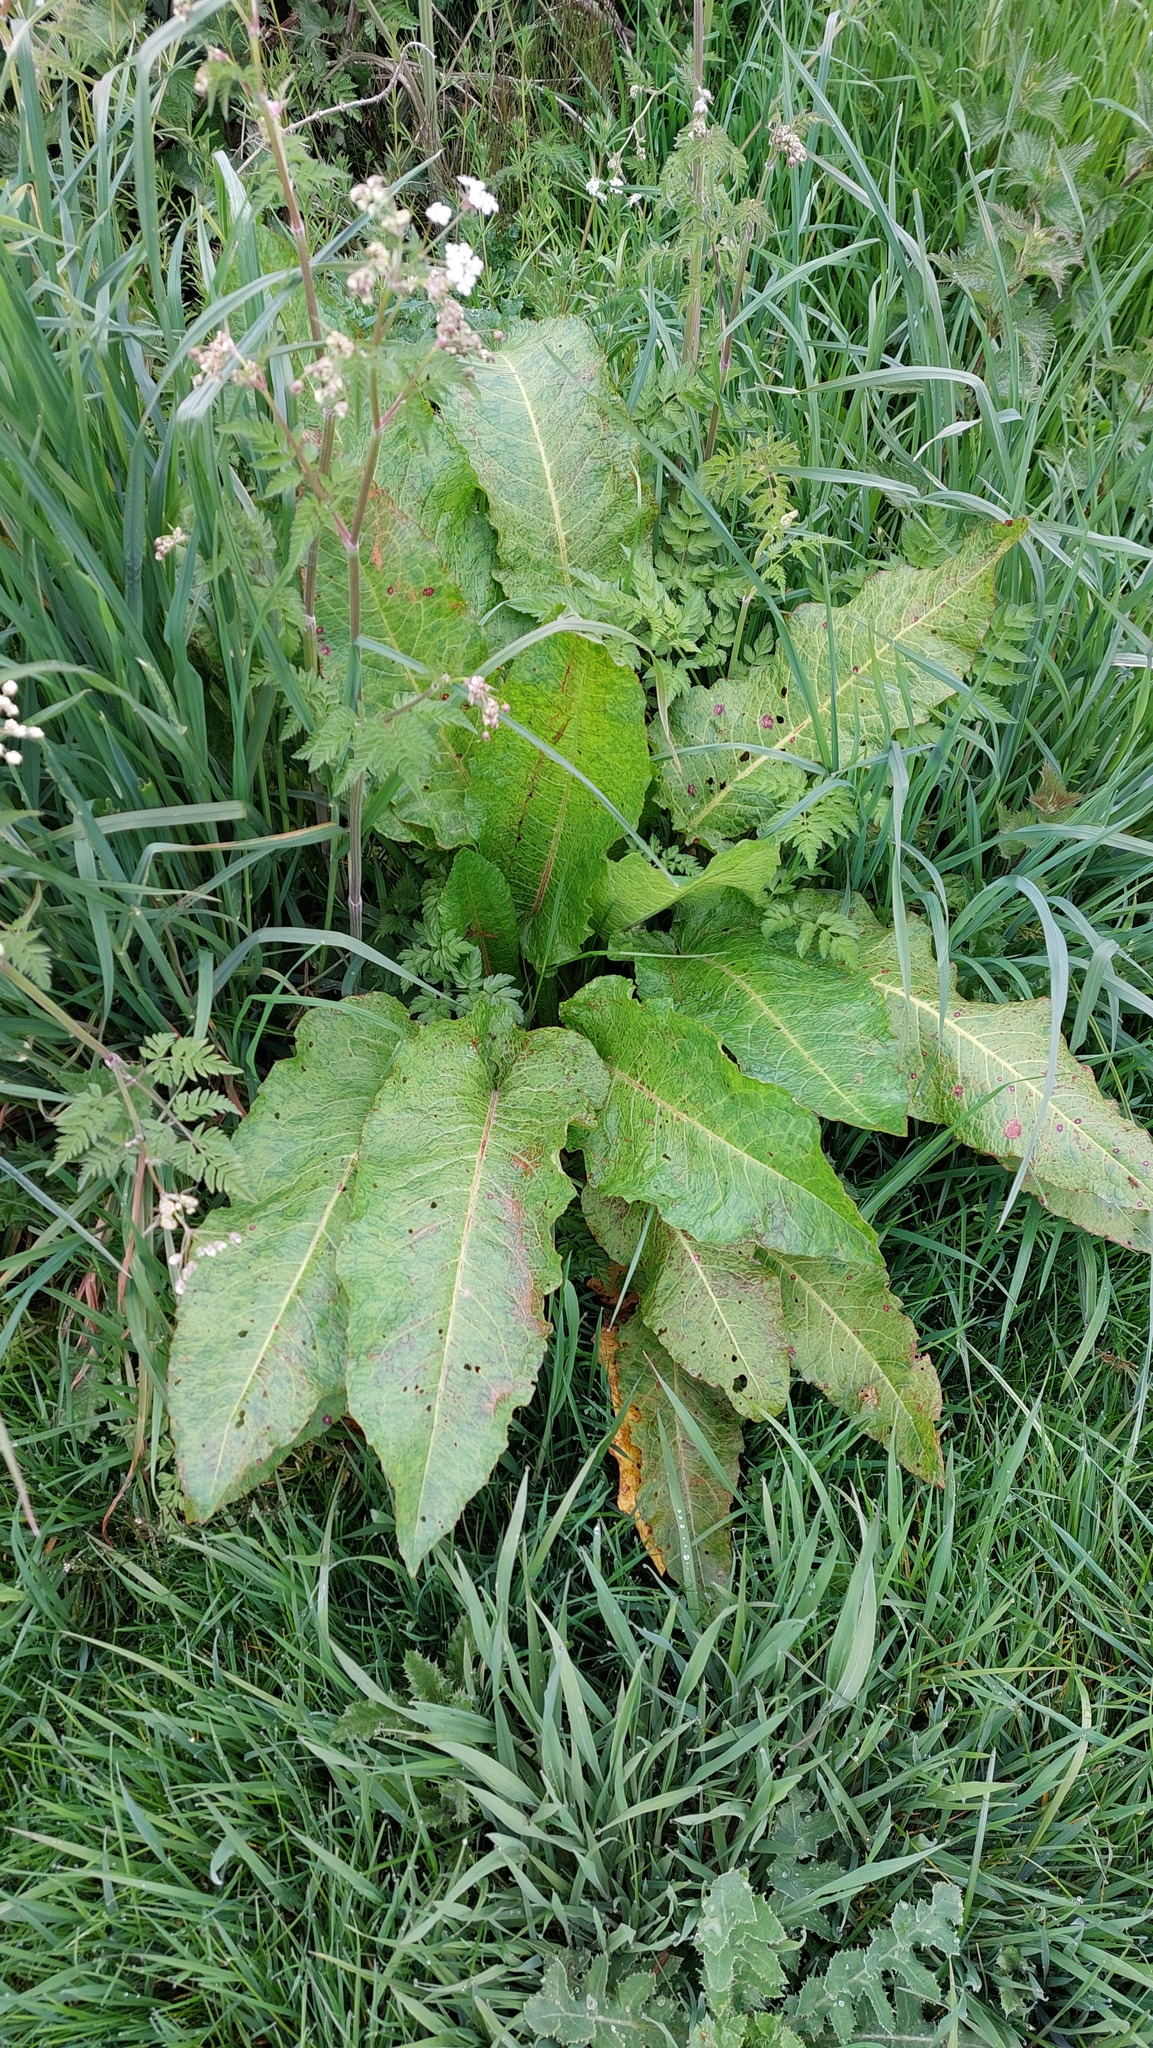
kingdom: Plantae
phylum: Tracheophyta
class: Magnoliopsida
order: Caryophyllales
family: Polygonaceae
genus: Rumex
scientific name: Rumex obtusifolius
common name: Bitter dock
